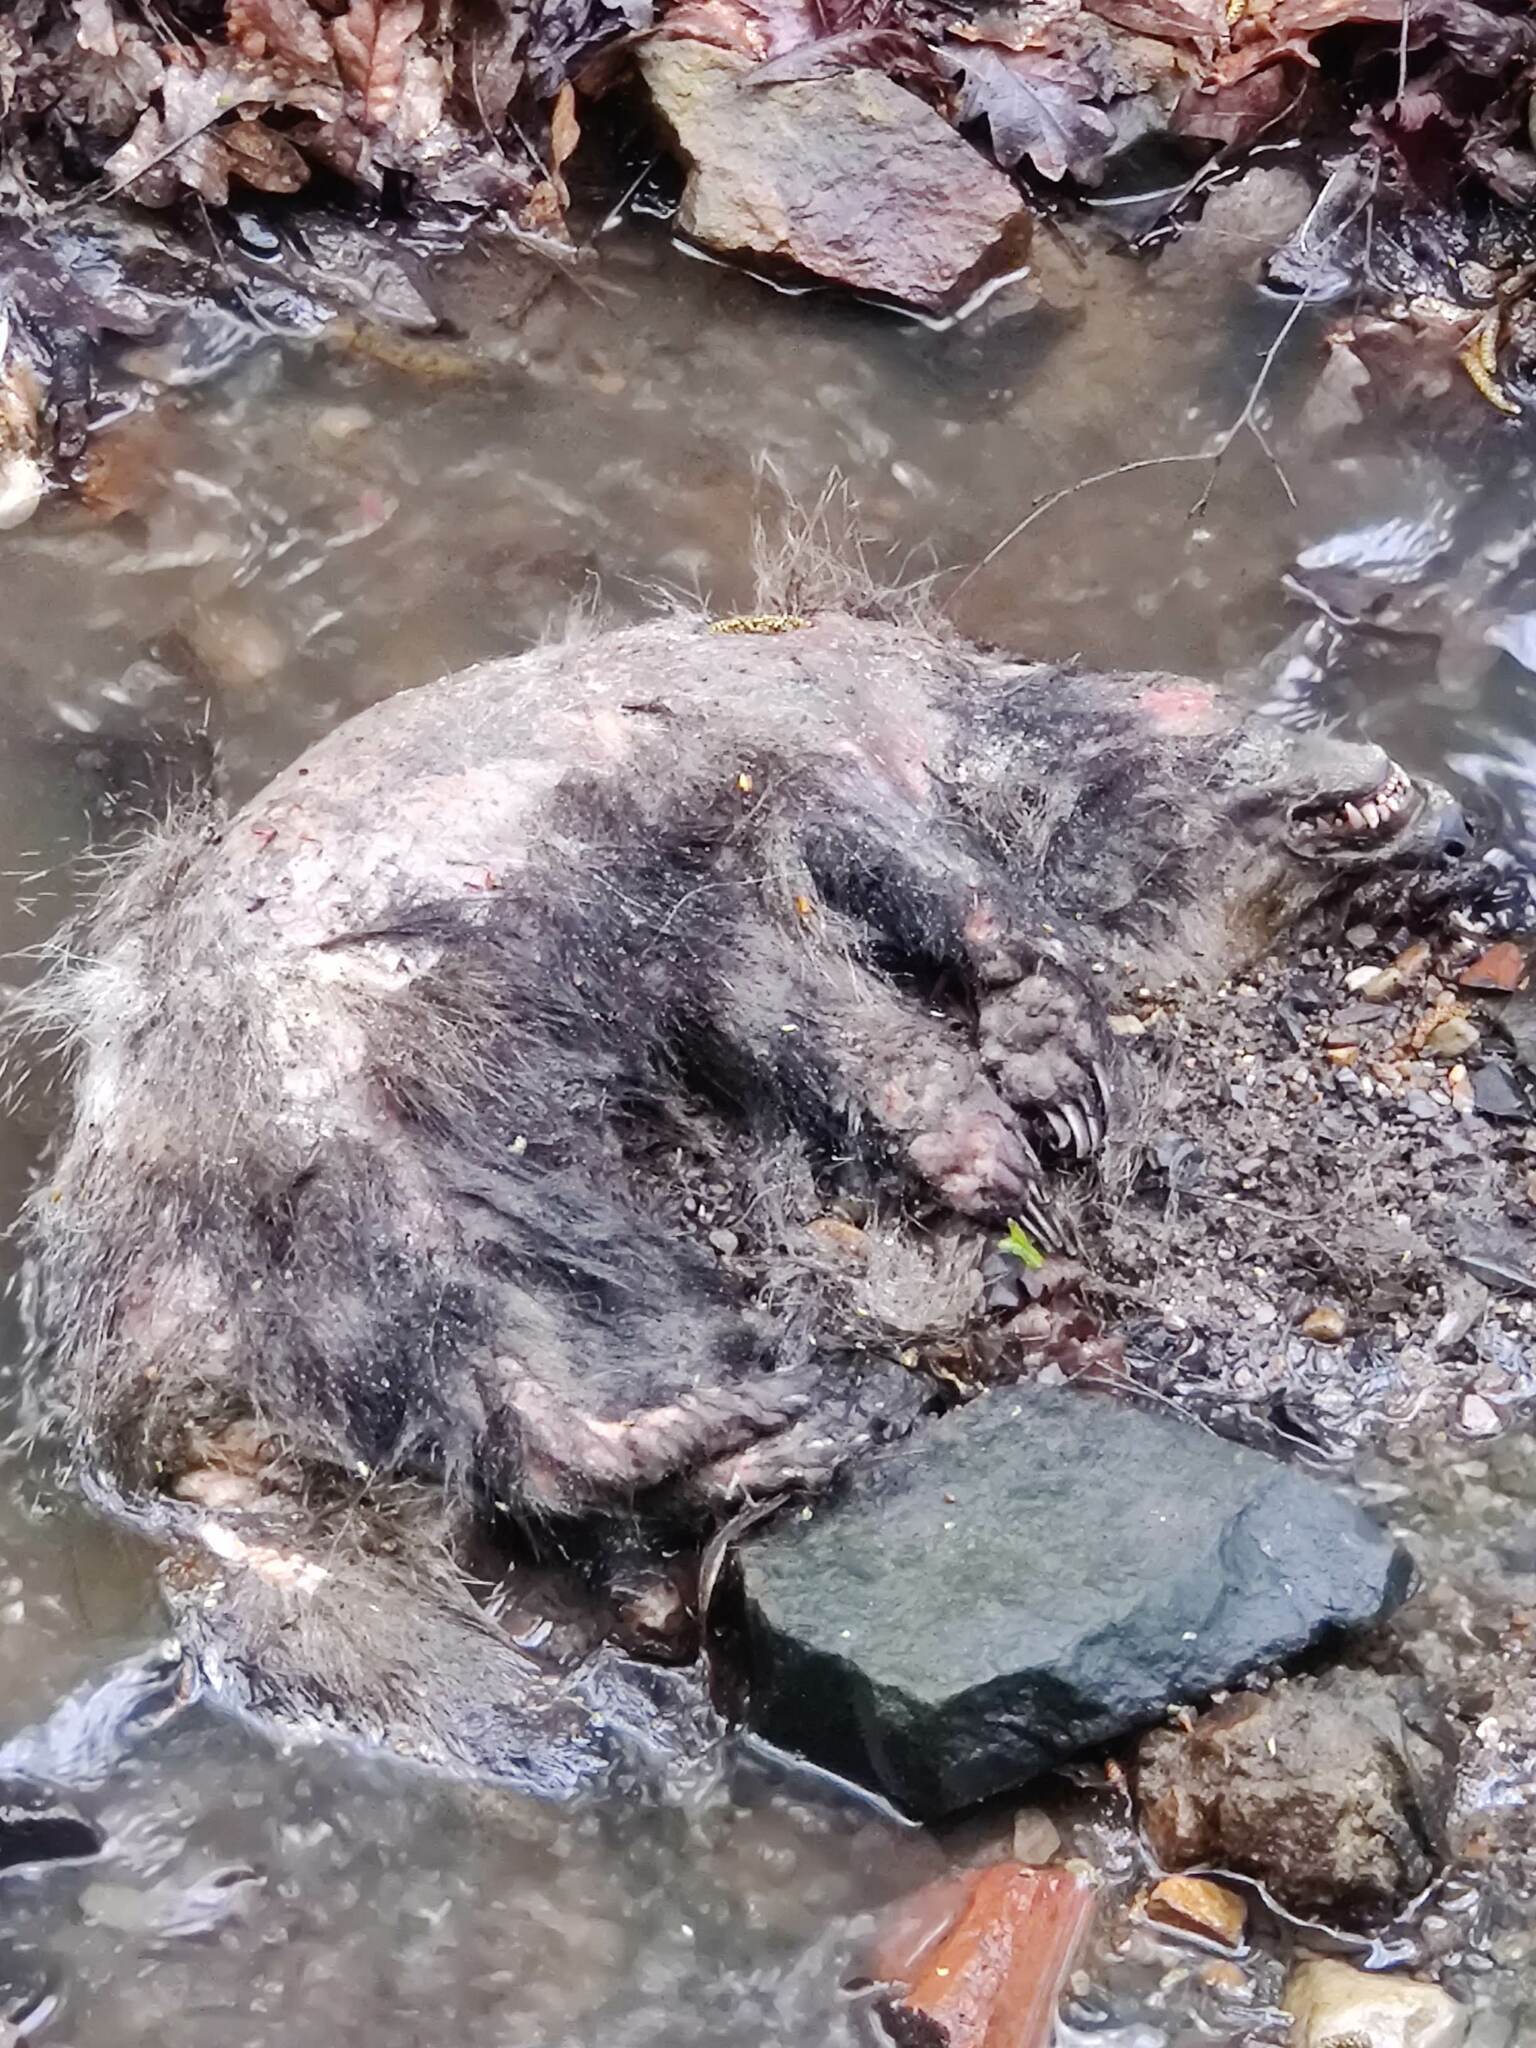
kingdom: Animalia
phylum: Chordata
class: Mammalia
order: Carnivora
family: Mustelidae
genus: Meles
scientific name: Meles meles
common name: Eurasian badger
